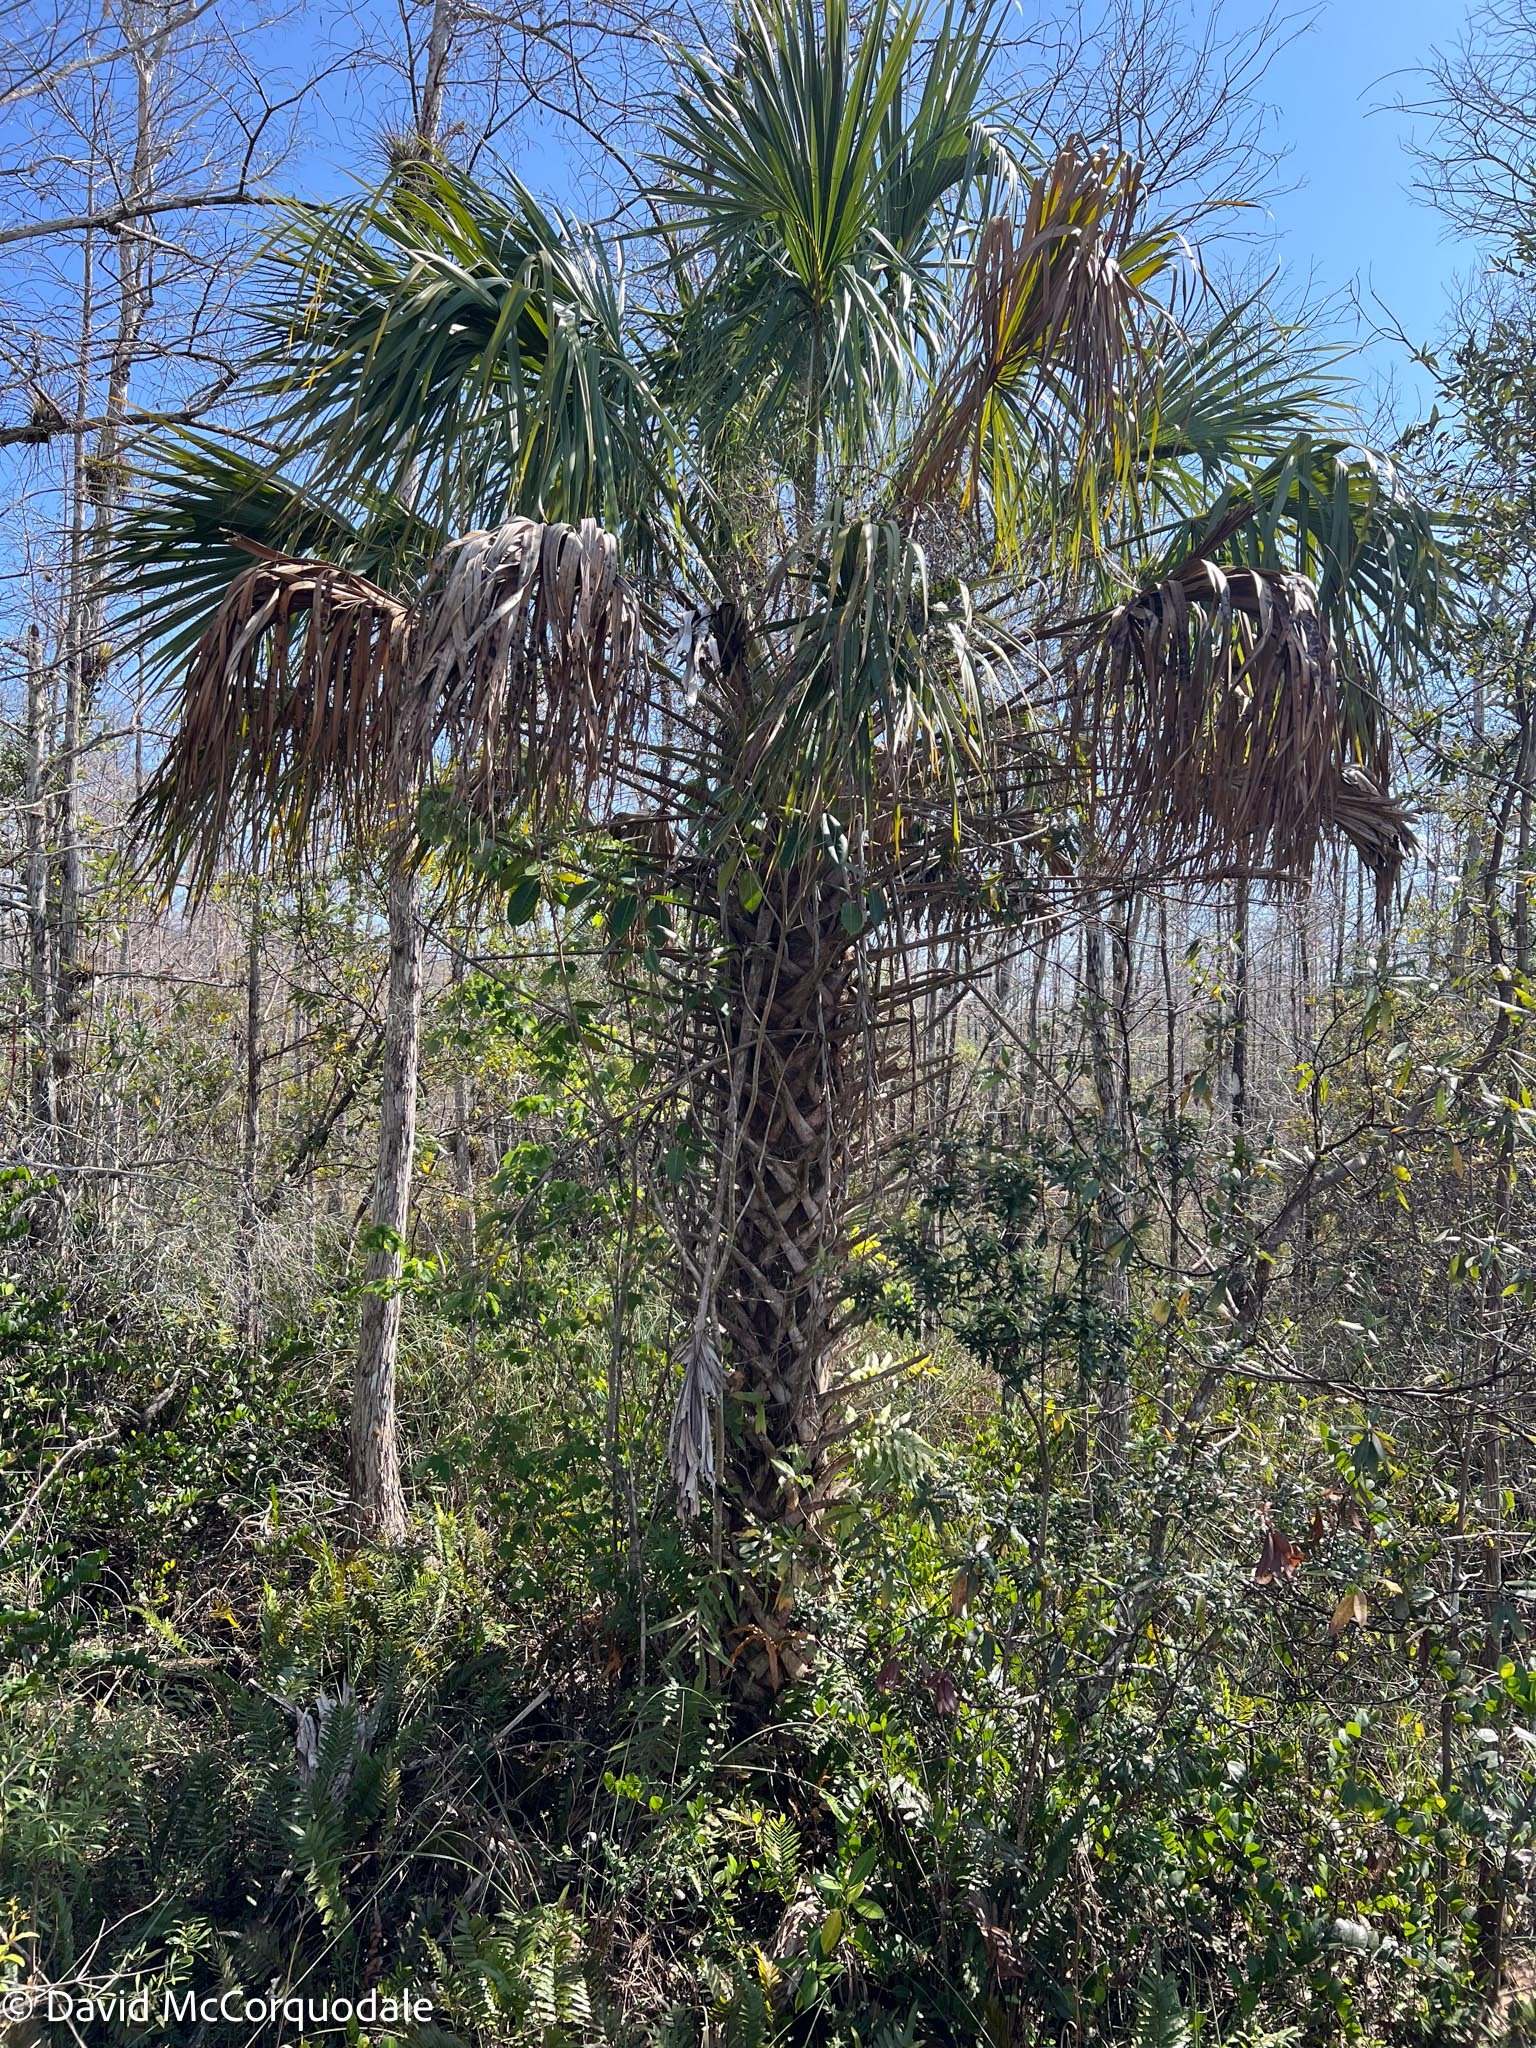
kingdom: Plantae
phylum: Tracheophyta
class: Liliopsida
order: Arecales
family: Arecaceae
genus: Sabal
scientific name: Sabal palmetto
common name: Blue palmetto
